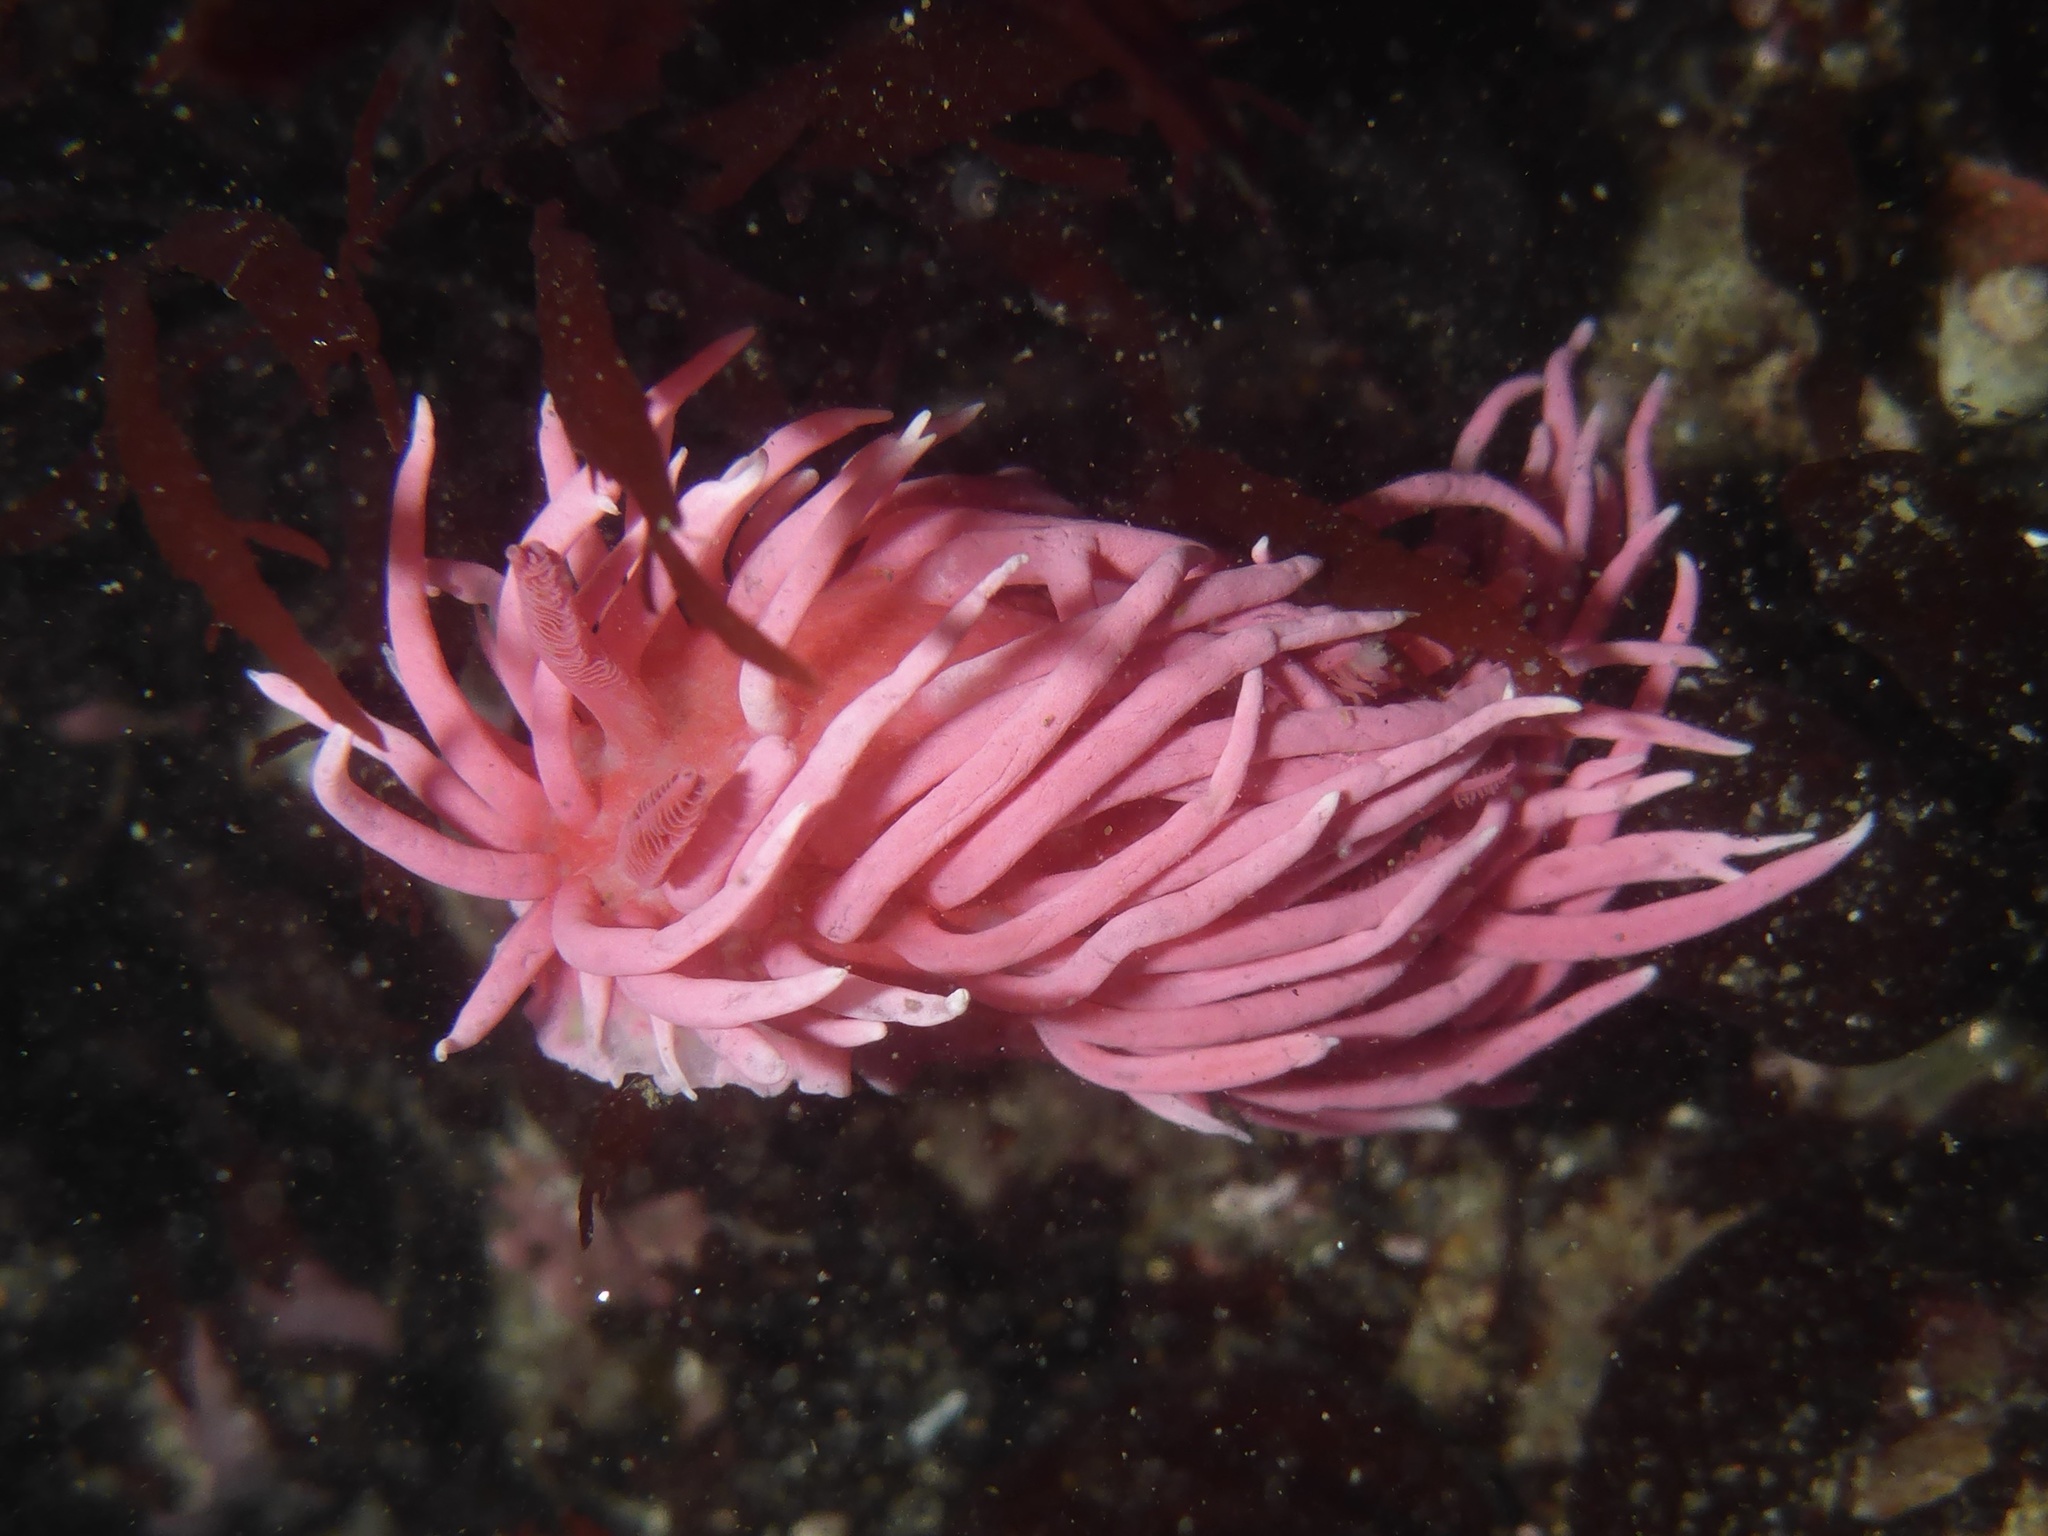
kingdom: Animalia
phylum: Mollusca
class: Gastropoda
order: Nudibranchia
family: Goniodorididae
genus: Okenia
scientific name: Okenia
